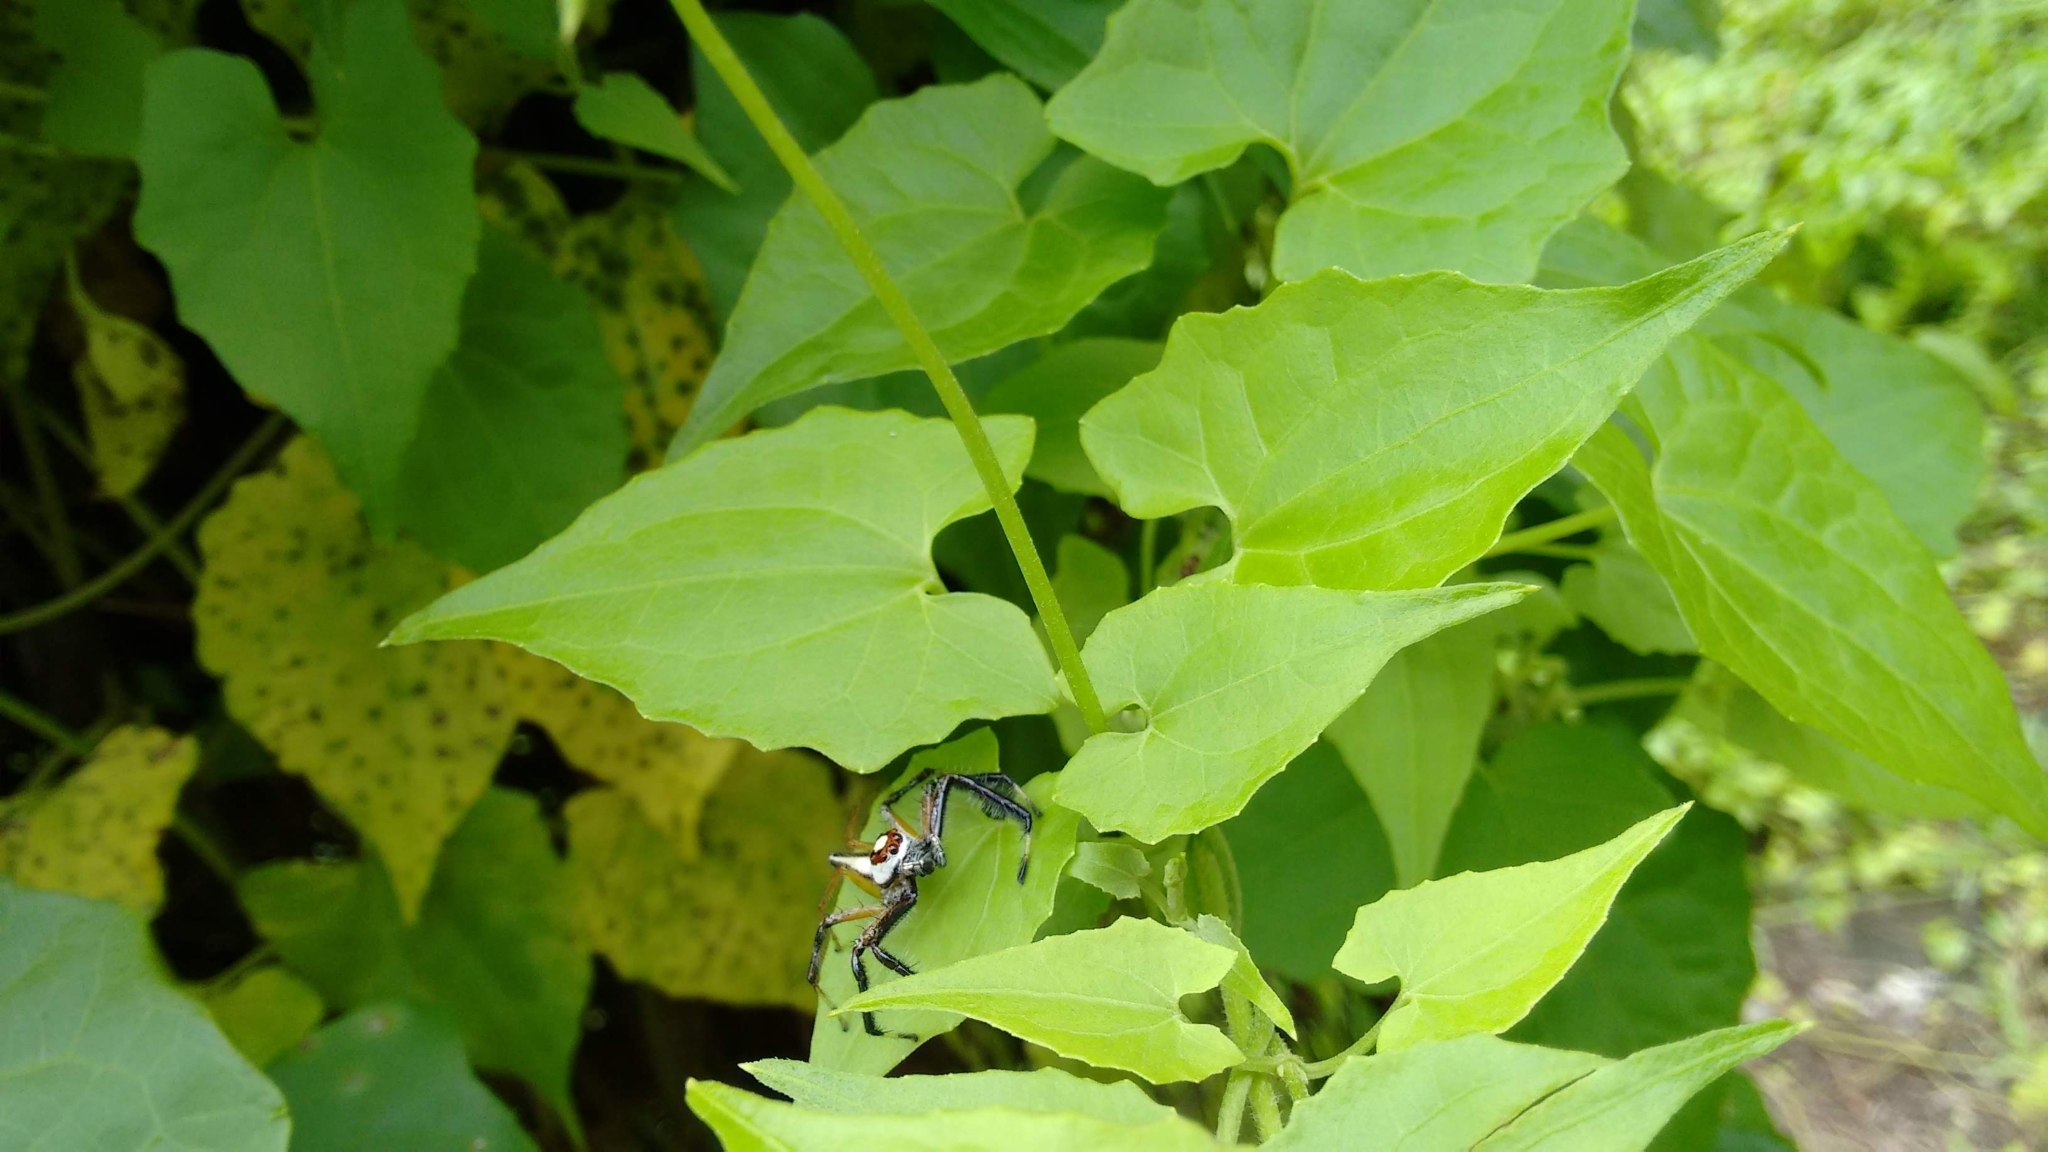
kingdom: Animalia
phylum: Arthropoda
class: Arachnida
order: Araneae
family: Salticidae
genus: Telamonia
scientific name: Telamonia dimidiata
